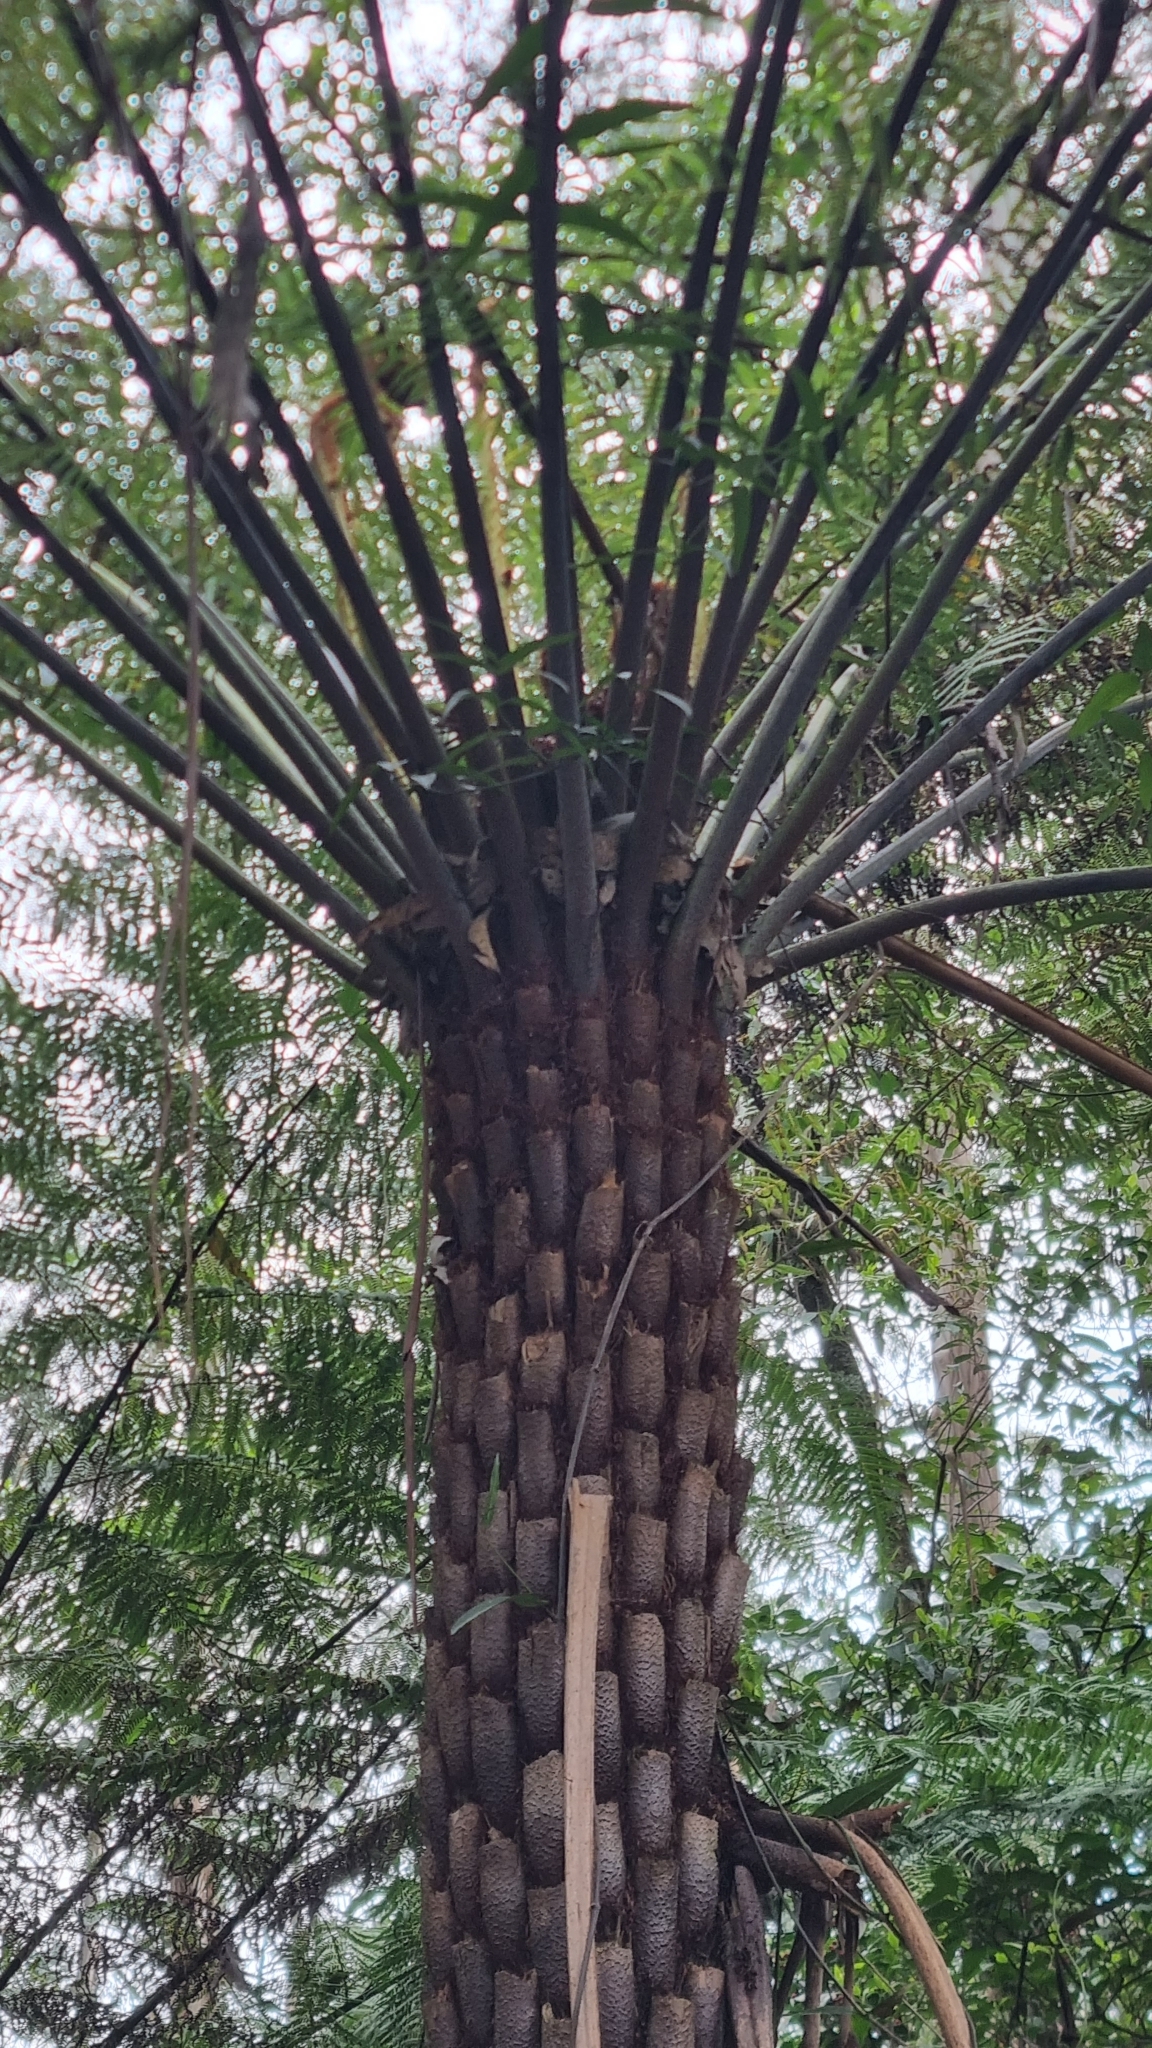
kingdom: Plantae
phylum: Tracheophyta
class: Polypodiopsida
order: Cyatheales
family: Cyatheaceae
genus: Alsophila
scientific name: Alsophila australis
